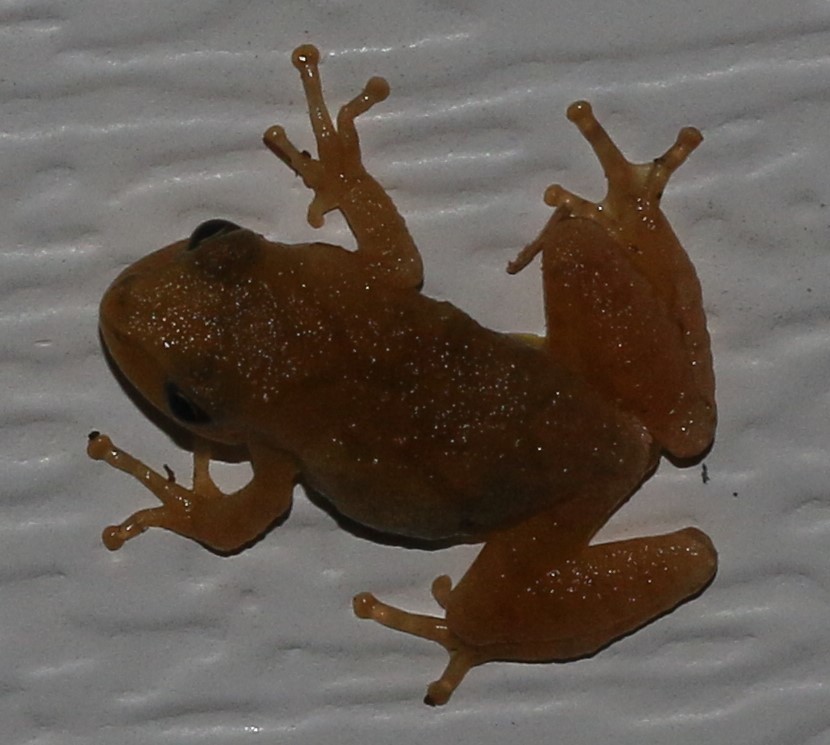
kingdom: Animalia
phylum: Chordata
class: Amphibia
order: Anura
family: Hylidae
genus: Pseudacris
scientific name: Pseudacris crucifer
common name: Spring peeper
